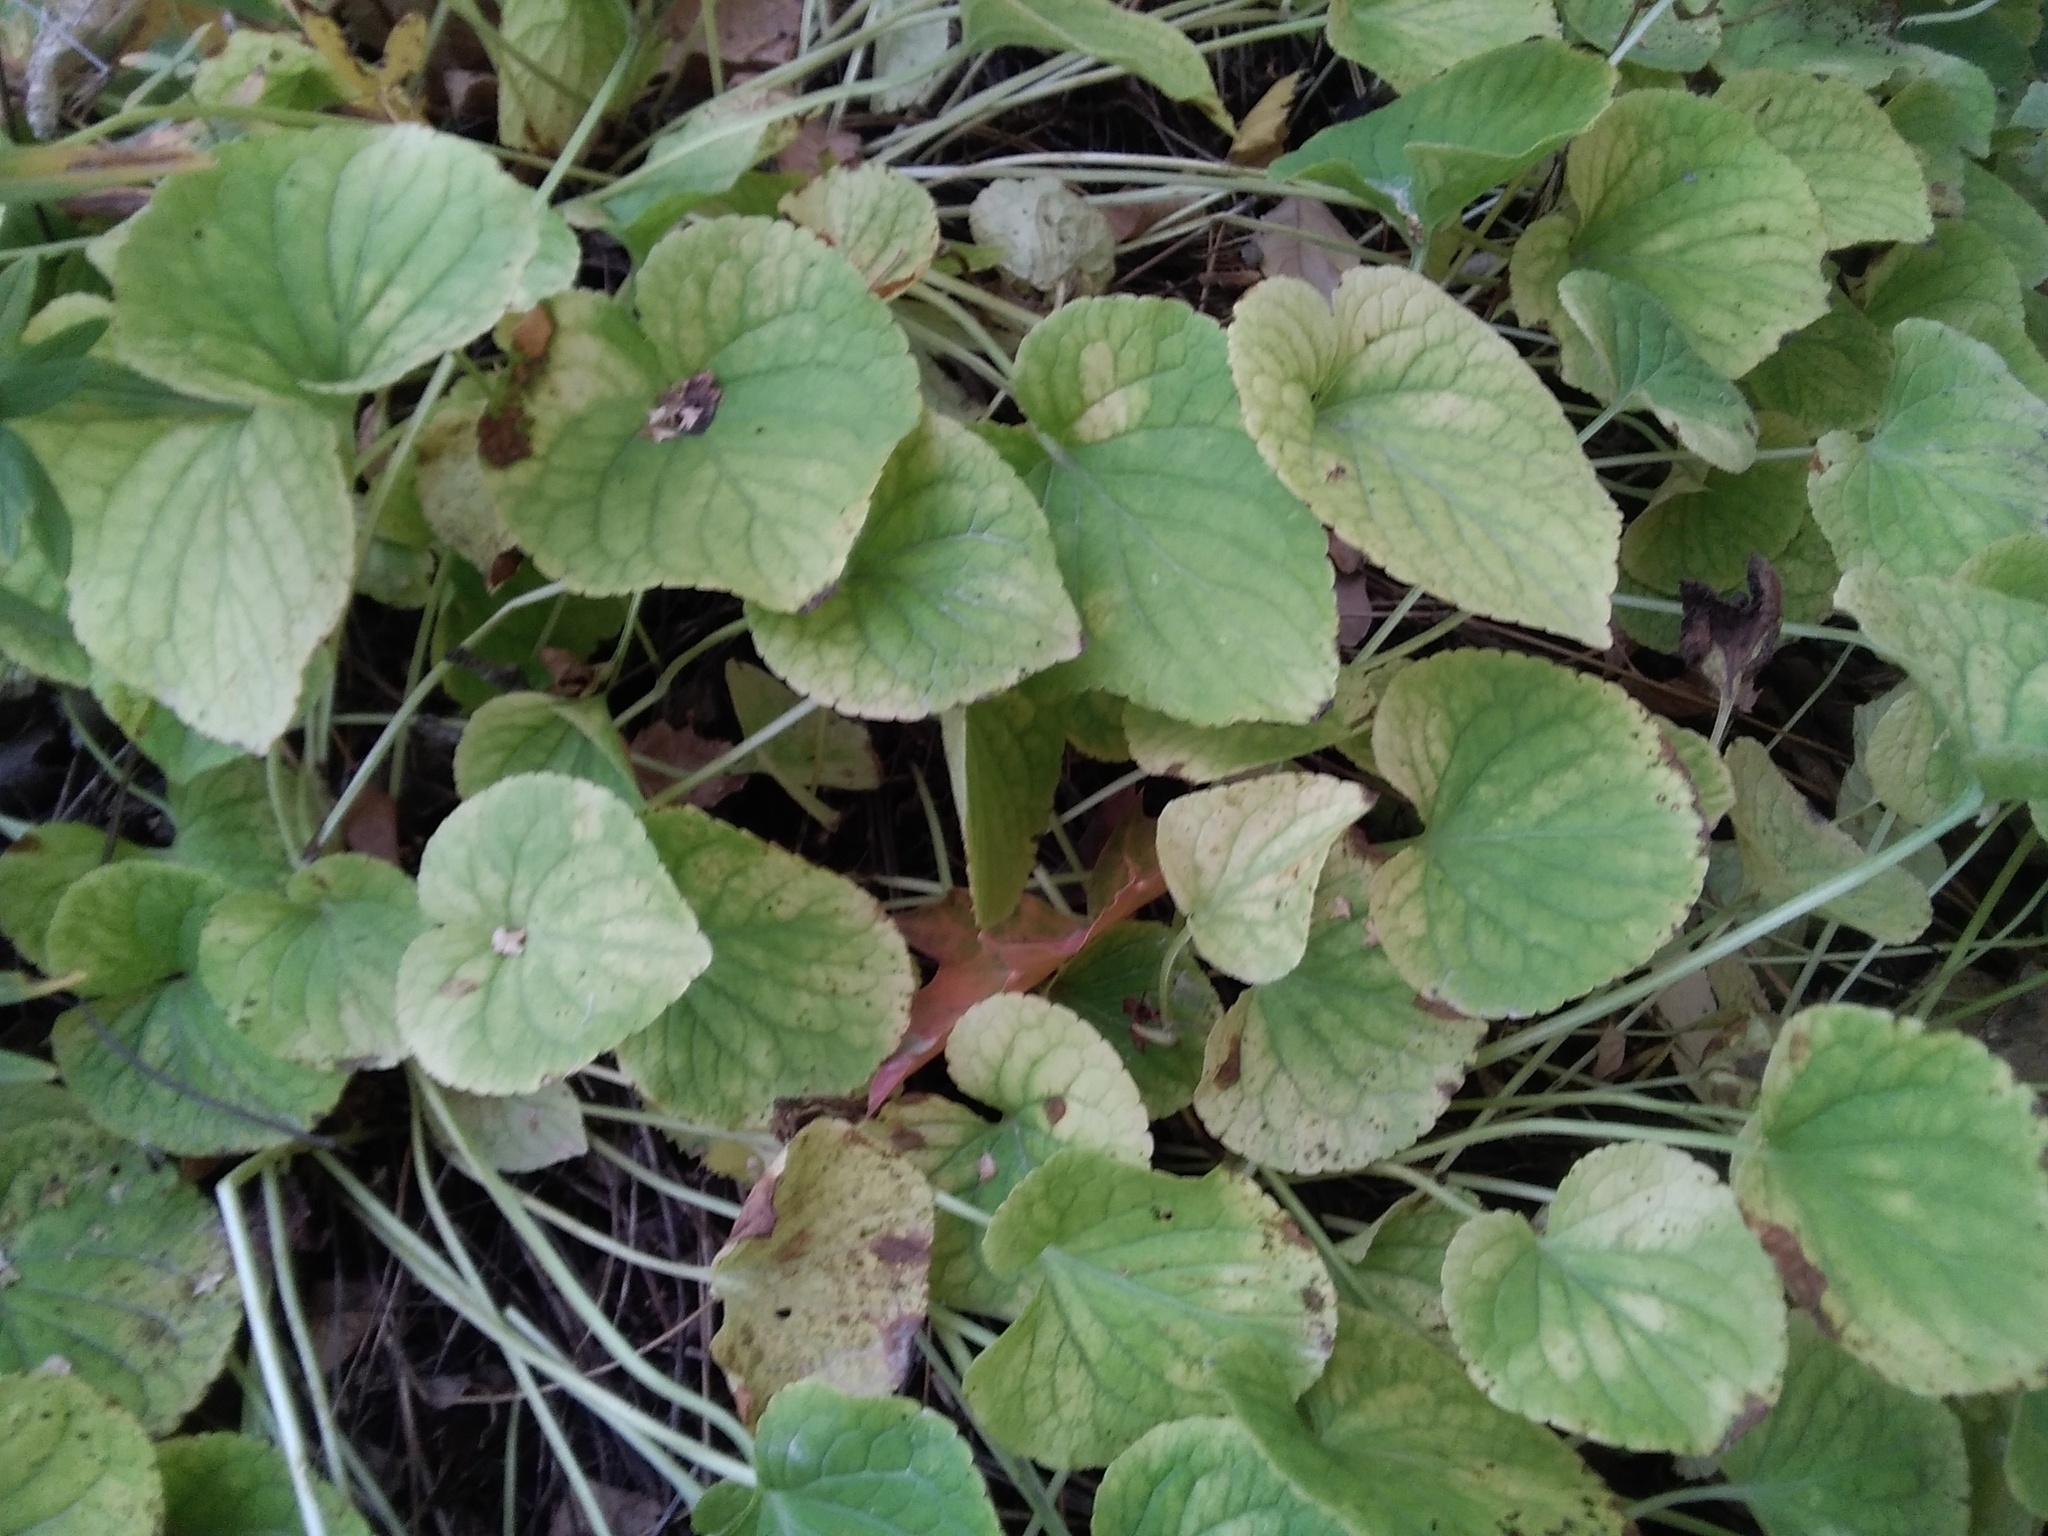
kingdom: Plantae
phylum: Tracheophyta
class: Magnoliopsida
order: Malpighiales
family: Violaceae
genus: Viola
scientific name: Viola mirabilis
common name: Wonder violet
